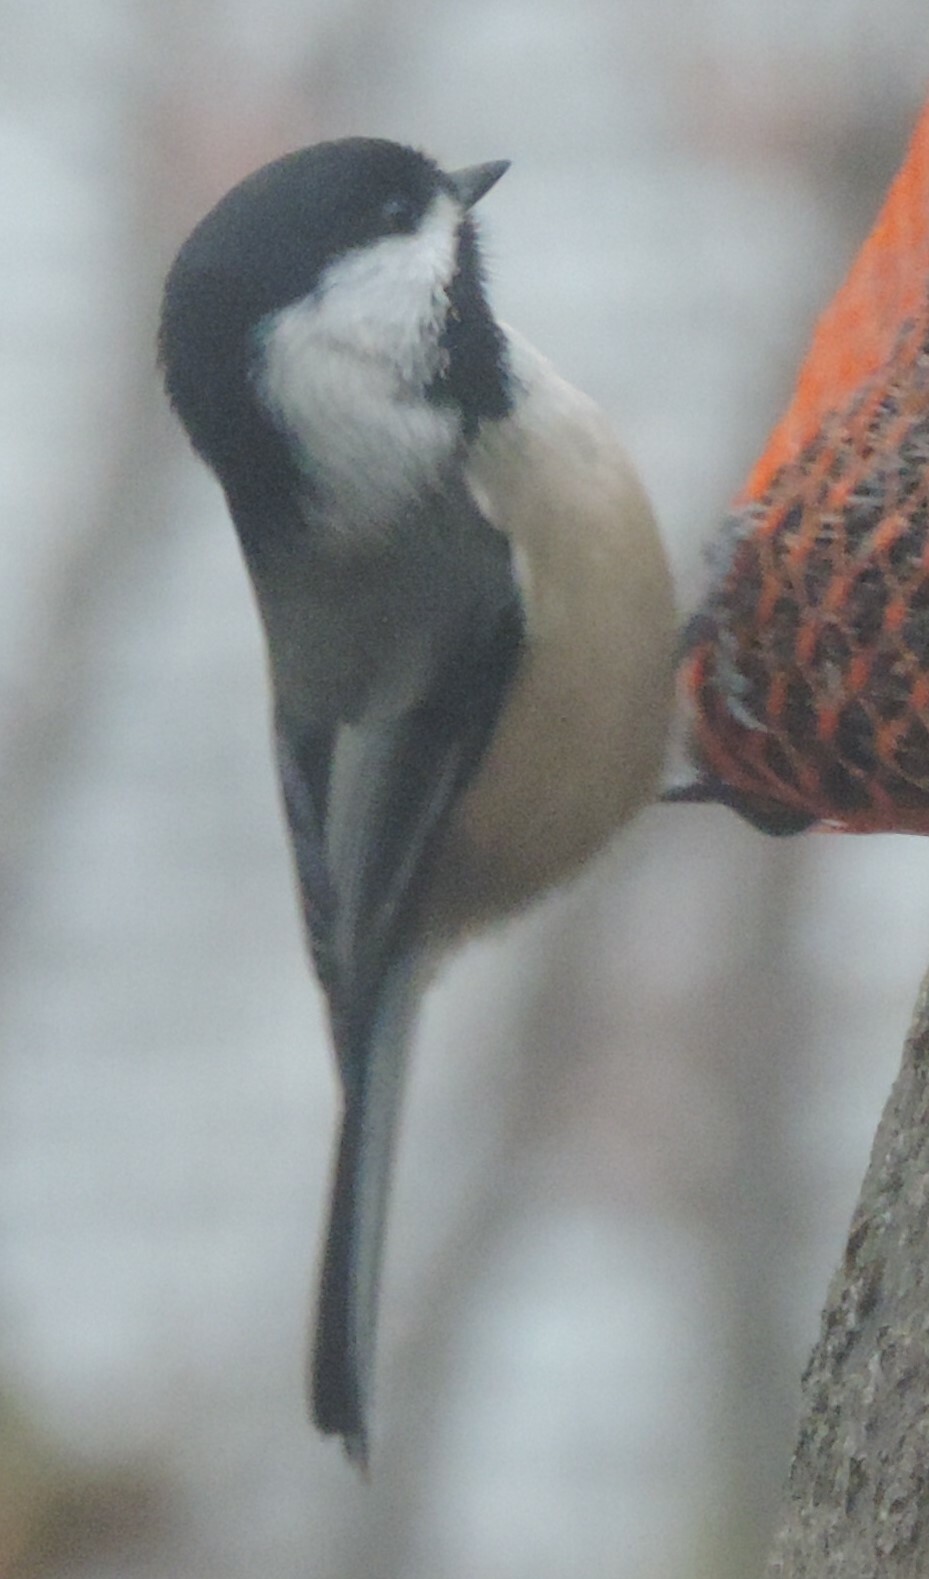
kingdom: Animalia
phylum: Chordata
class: Aves
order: Passeriformes
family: Paridae
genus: Poecile
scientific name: Poecile atricapillus
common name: Black-capped chickadee
